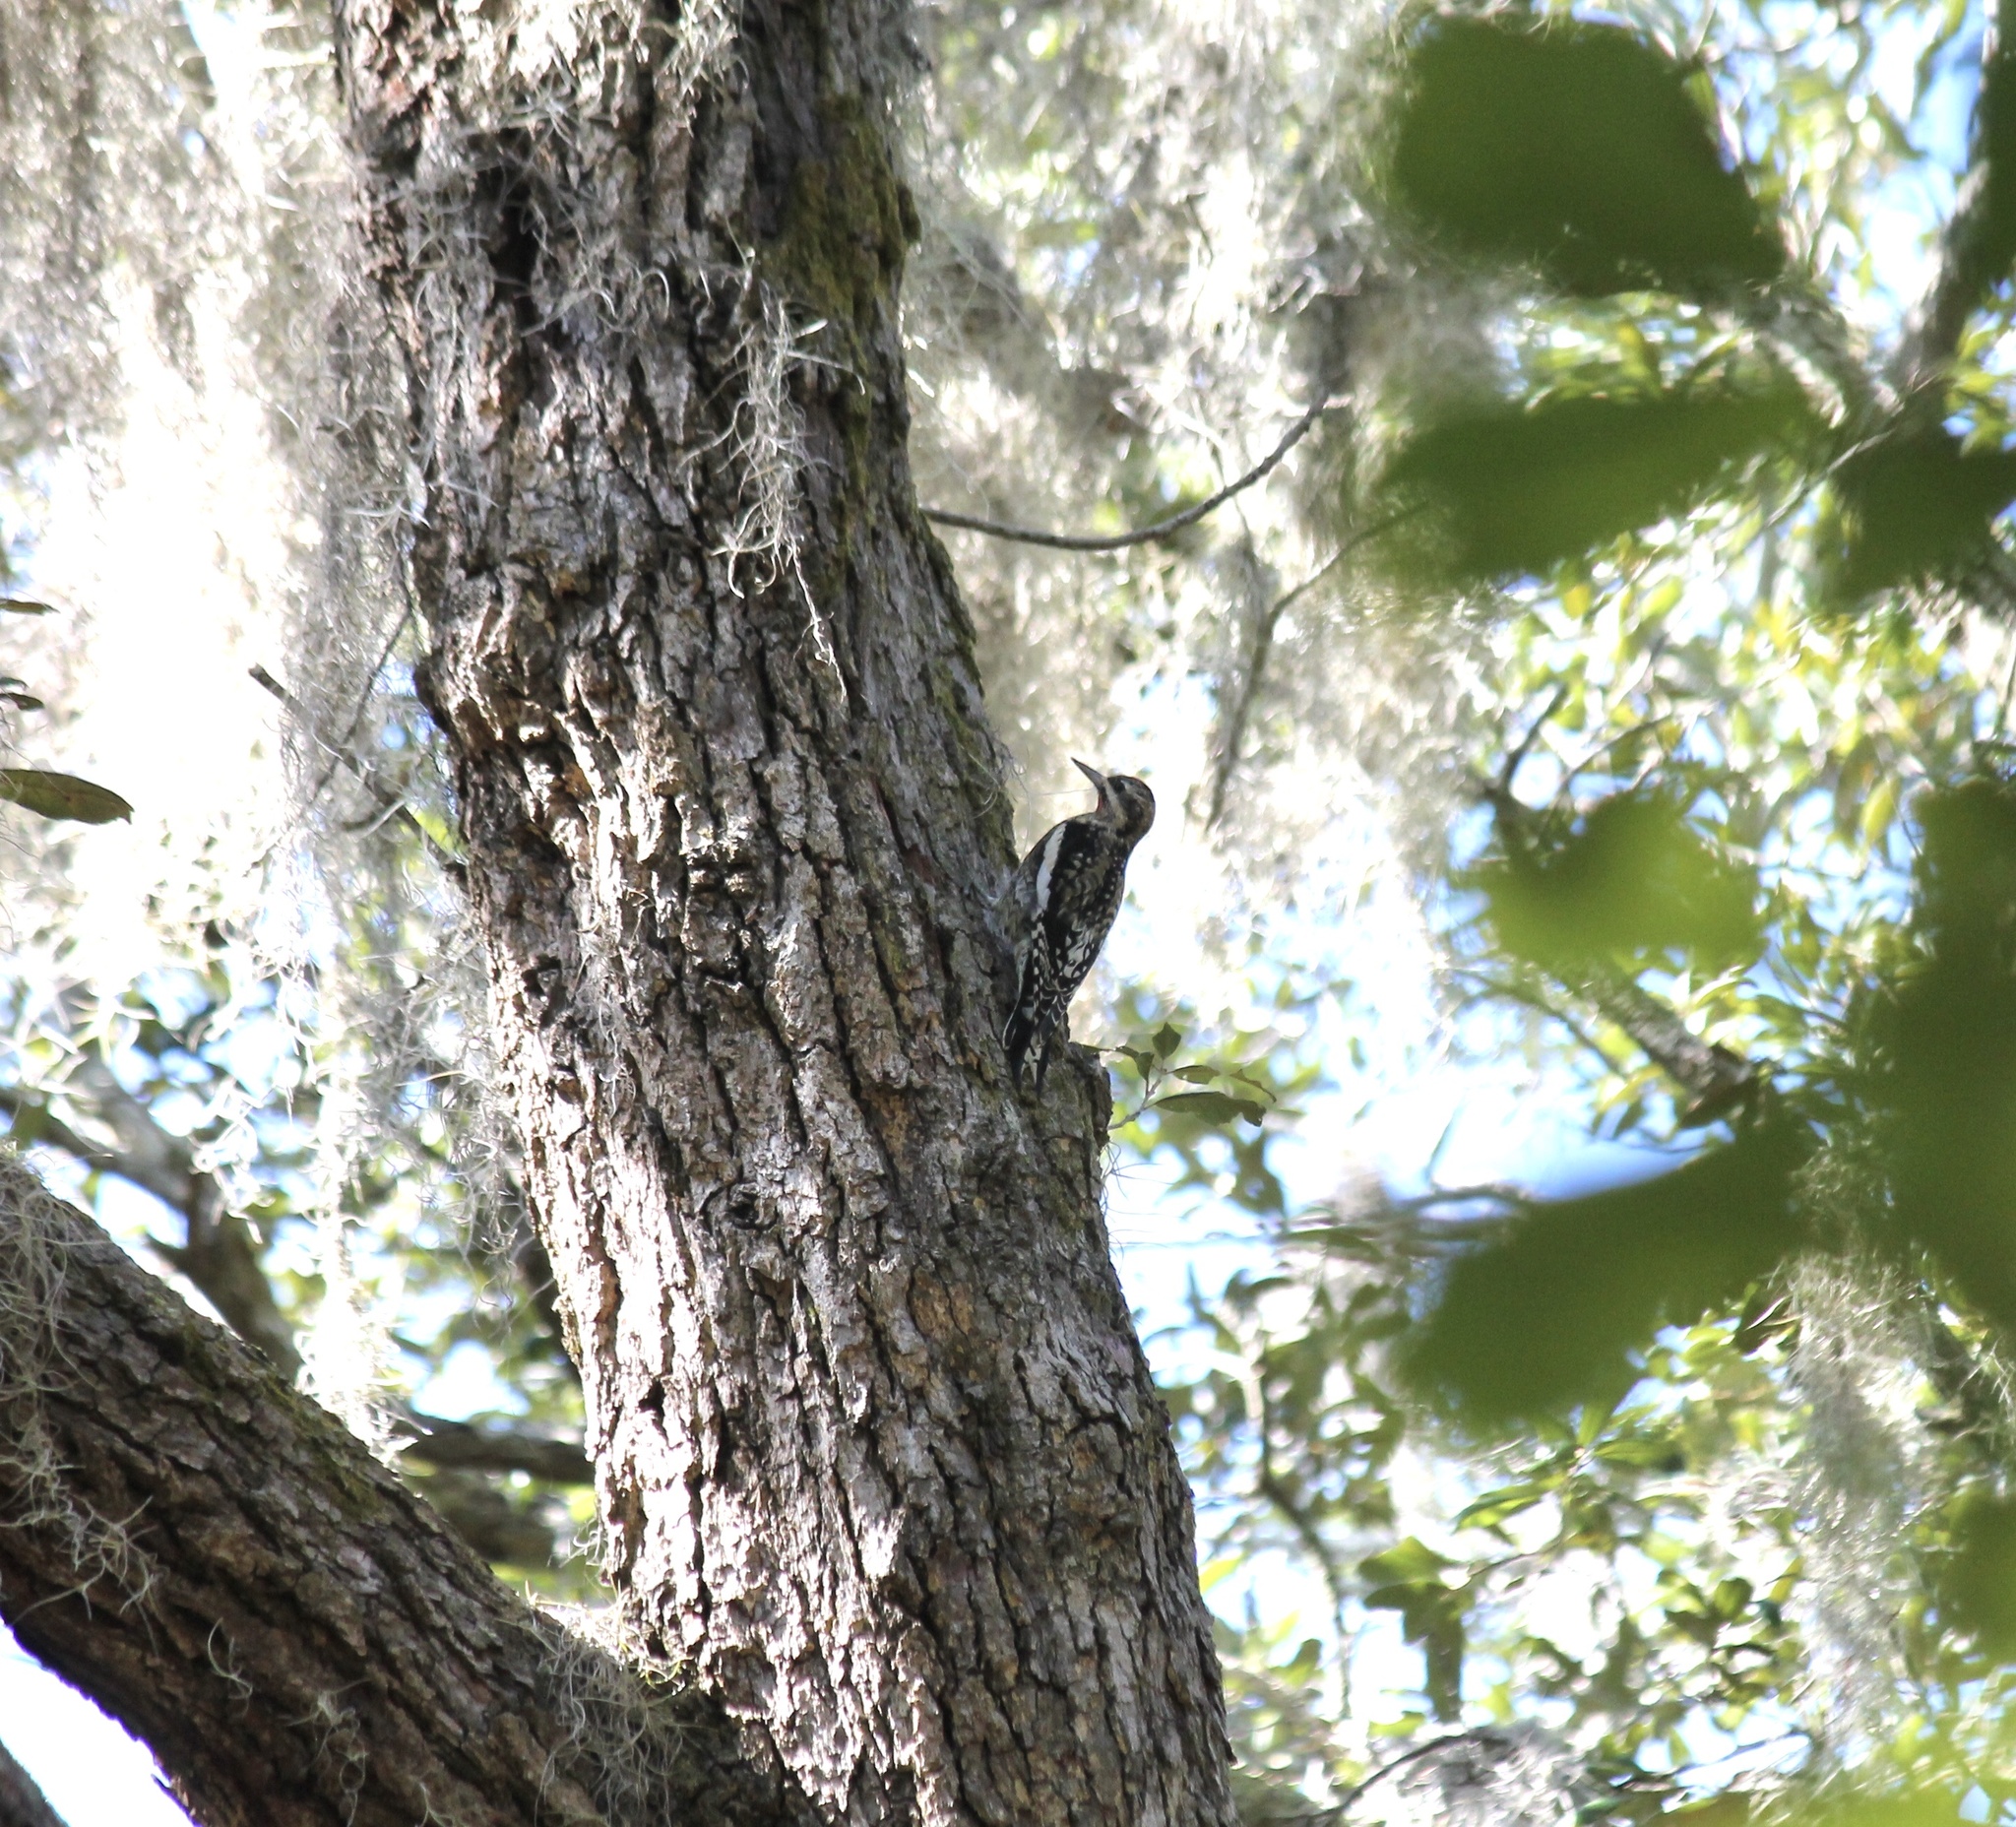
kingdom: Animalia
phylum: Chordata
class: Aves
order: Piciformes
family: Picidae
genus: Sphyrapicus
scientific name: Sphyrapicus varius
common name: Yellow-bellied sapsucker
